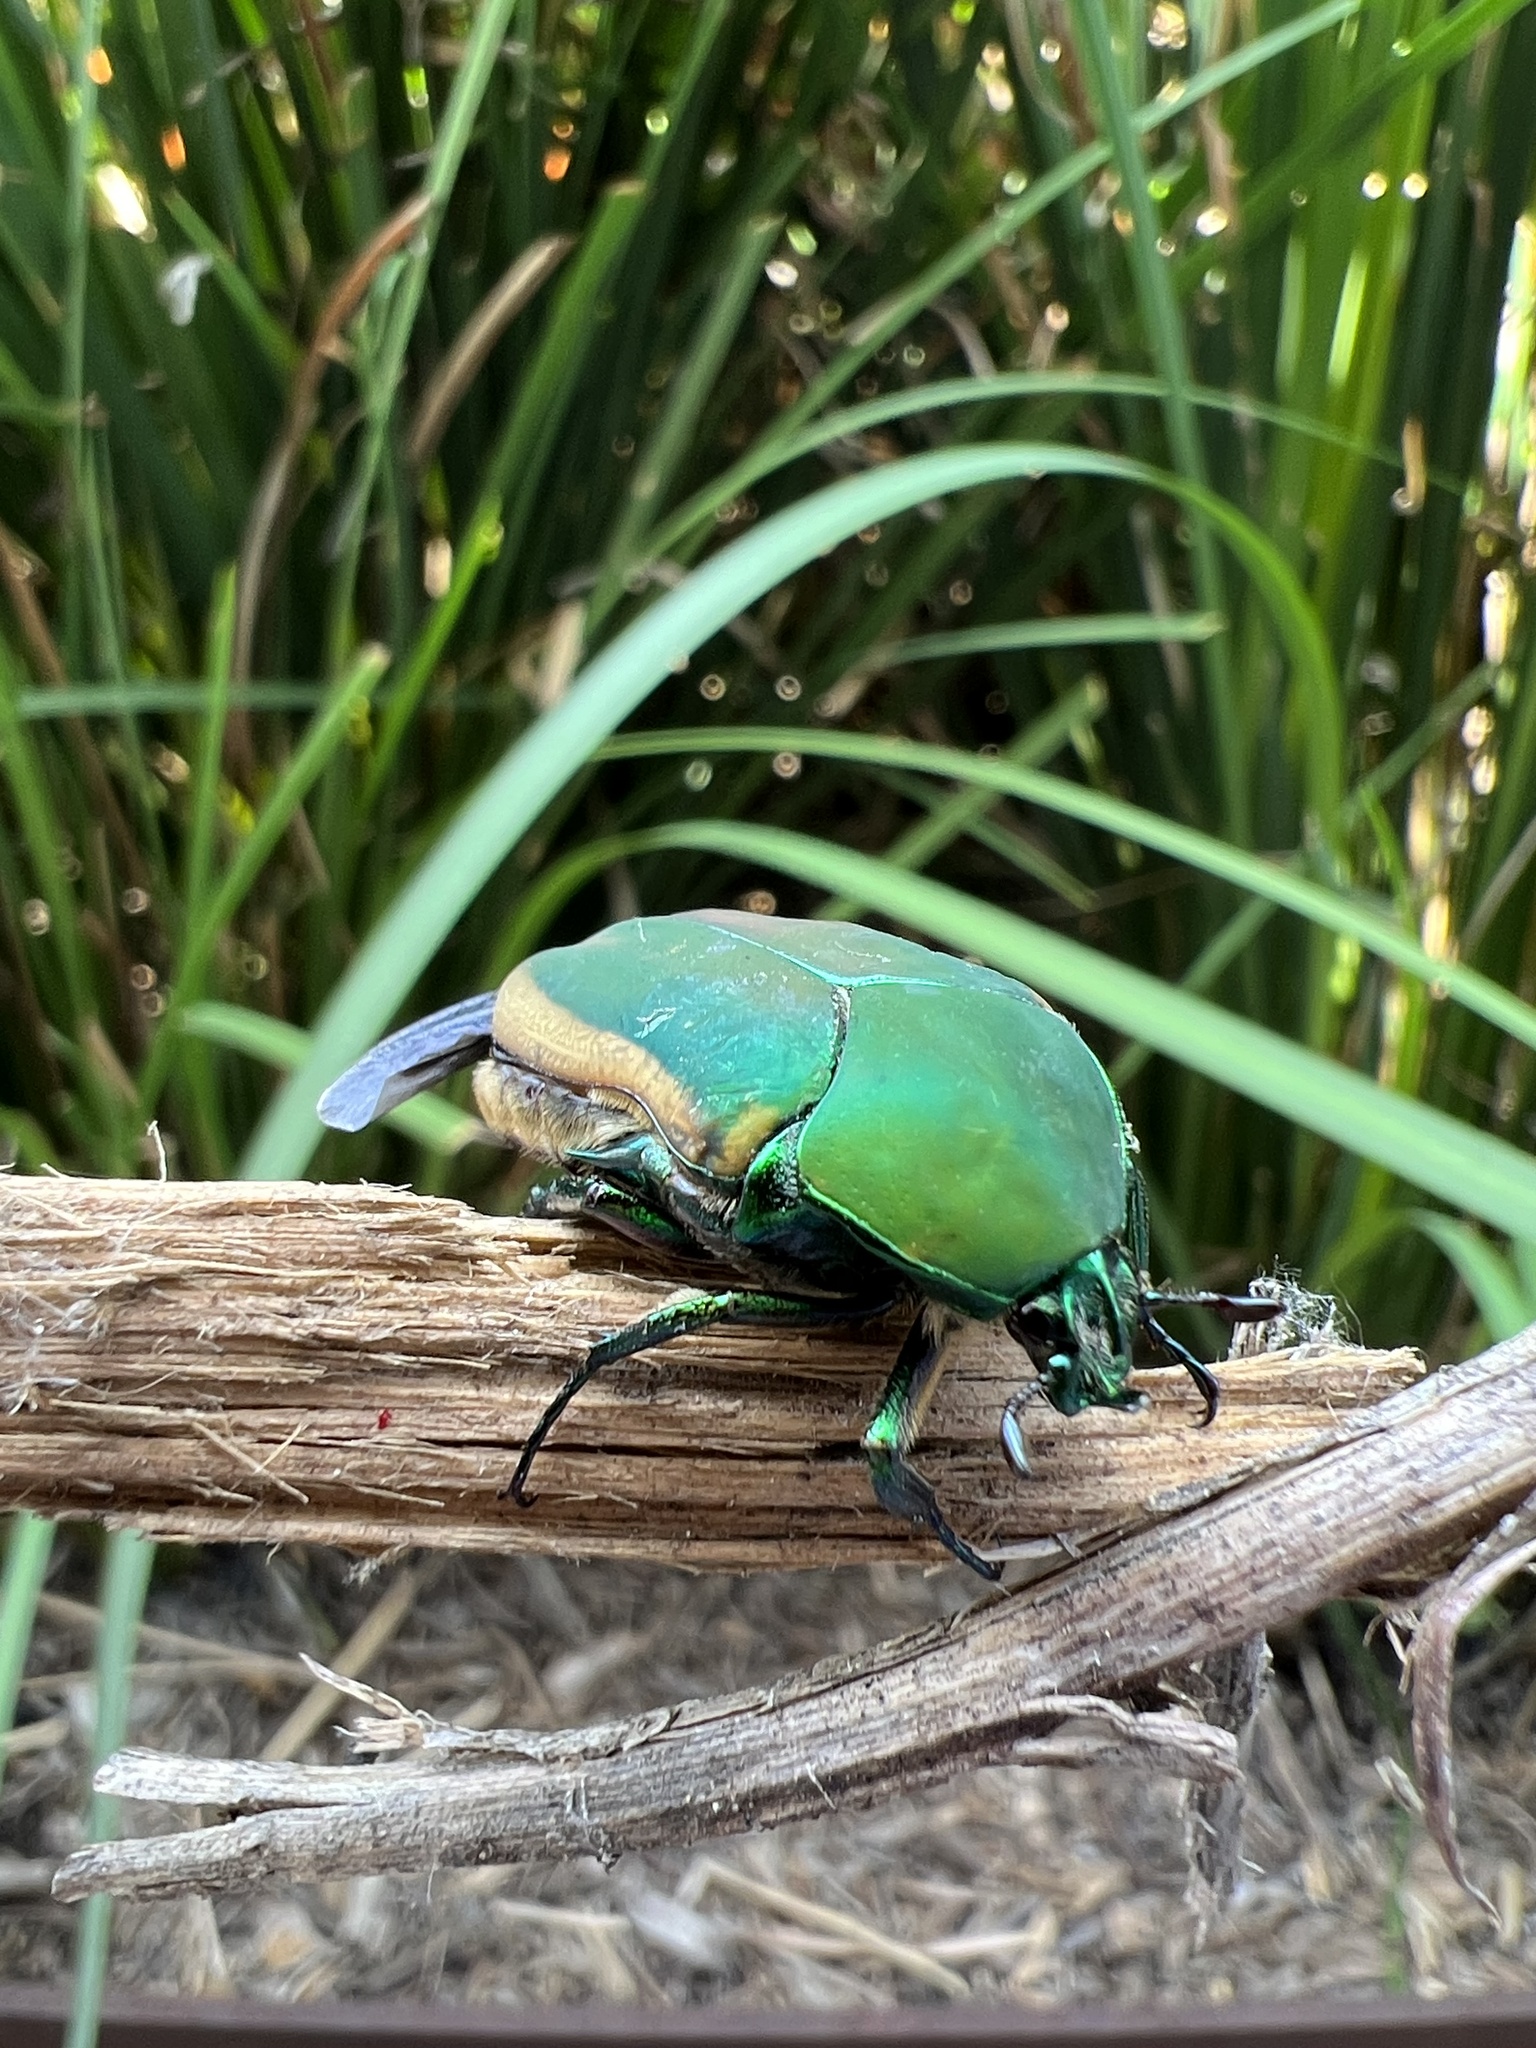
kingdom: Animalia
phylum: Arthropoda
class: Insecta
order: Coleoptera
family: Scarabaeidae
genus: Cotinis
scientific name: Cotinis mutabilis
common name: Figeater beetle
